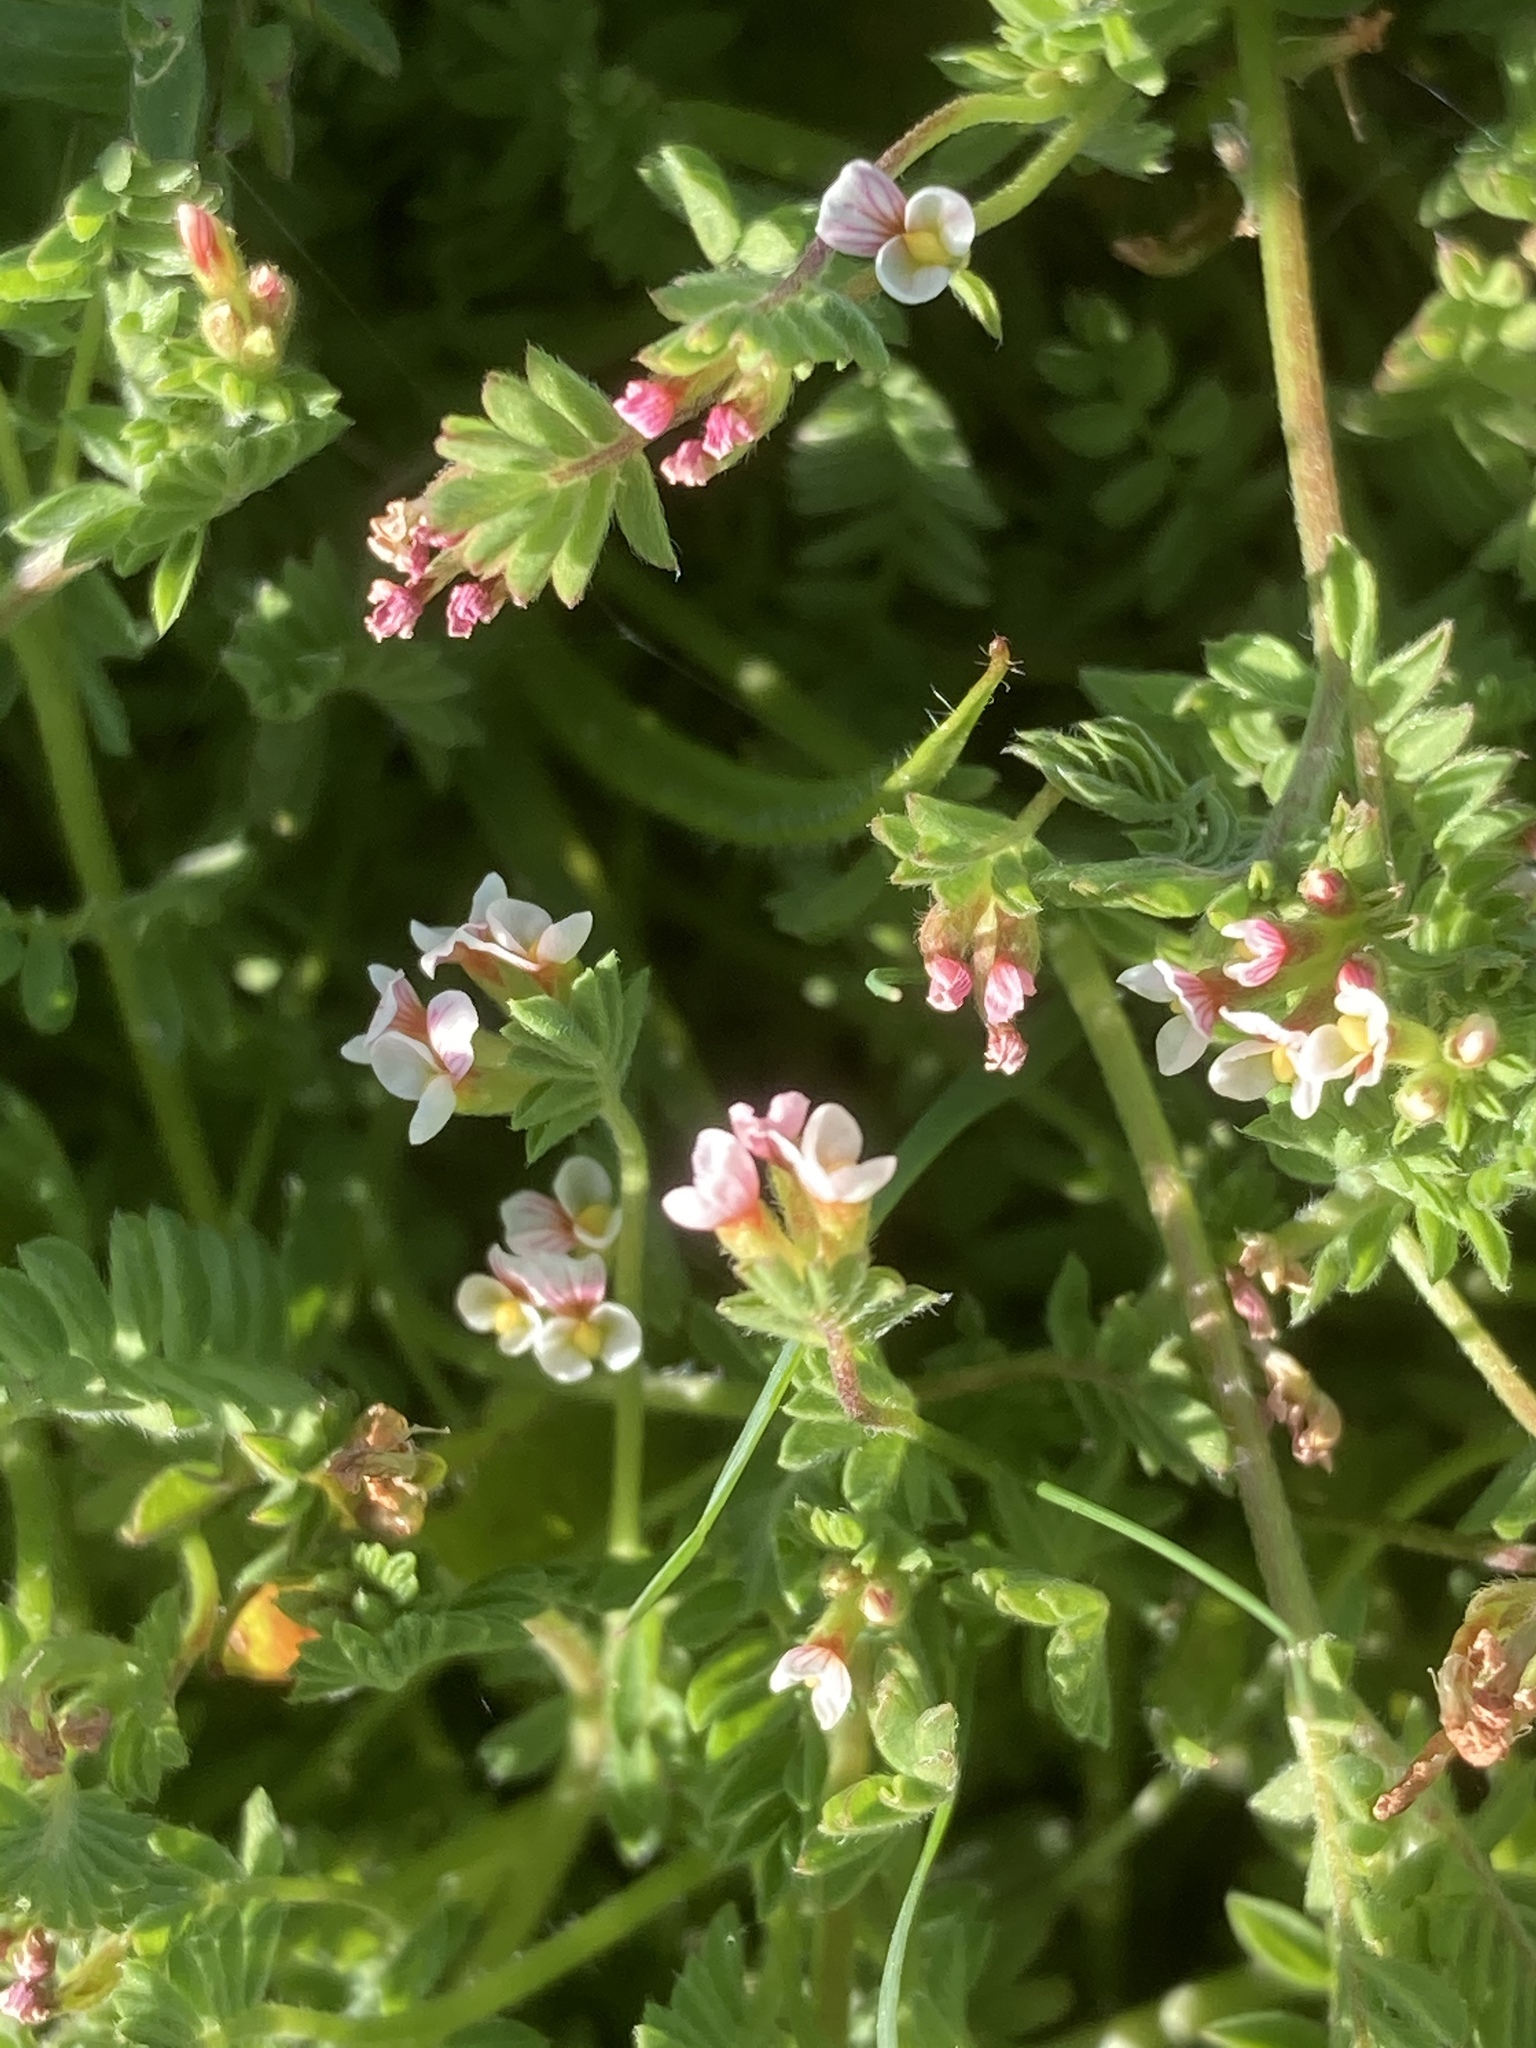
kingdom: Plantae
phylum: Tracheophyta
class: Magnoliopsida
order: Fabales
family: Fabaceae
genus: Ornithopus
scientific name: Ornithopus perpusillus
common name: Bird's-foot
